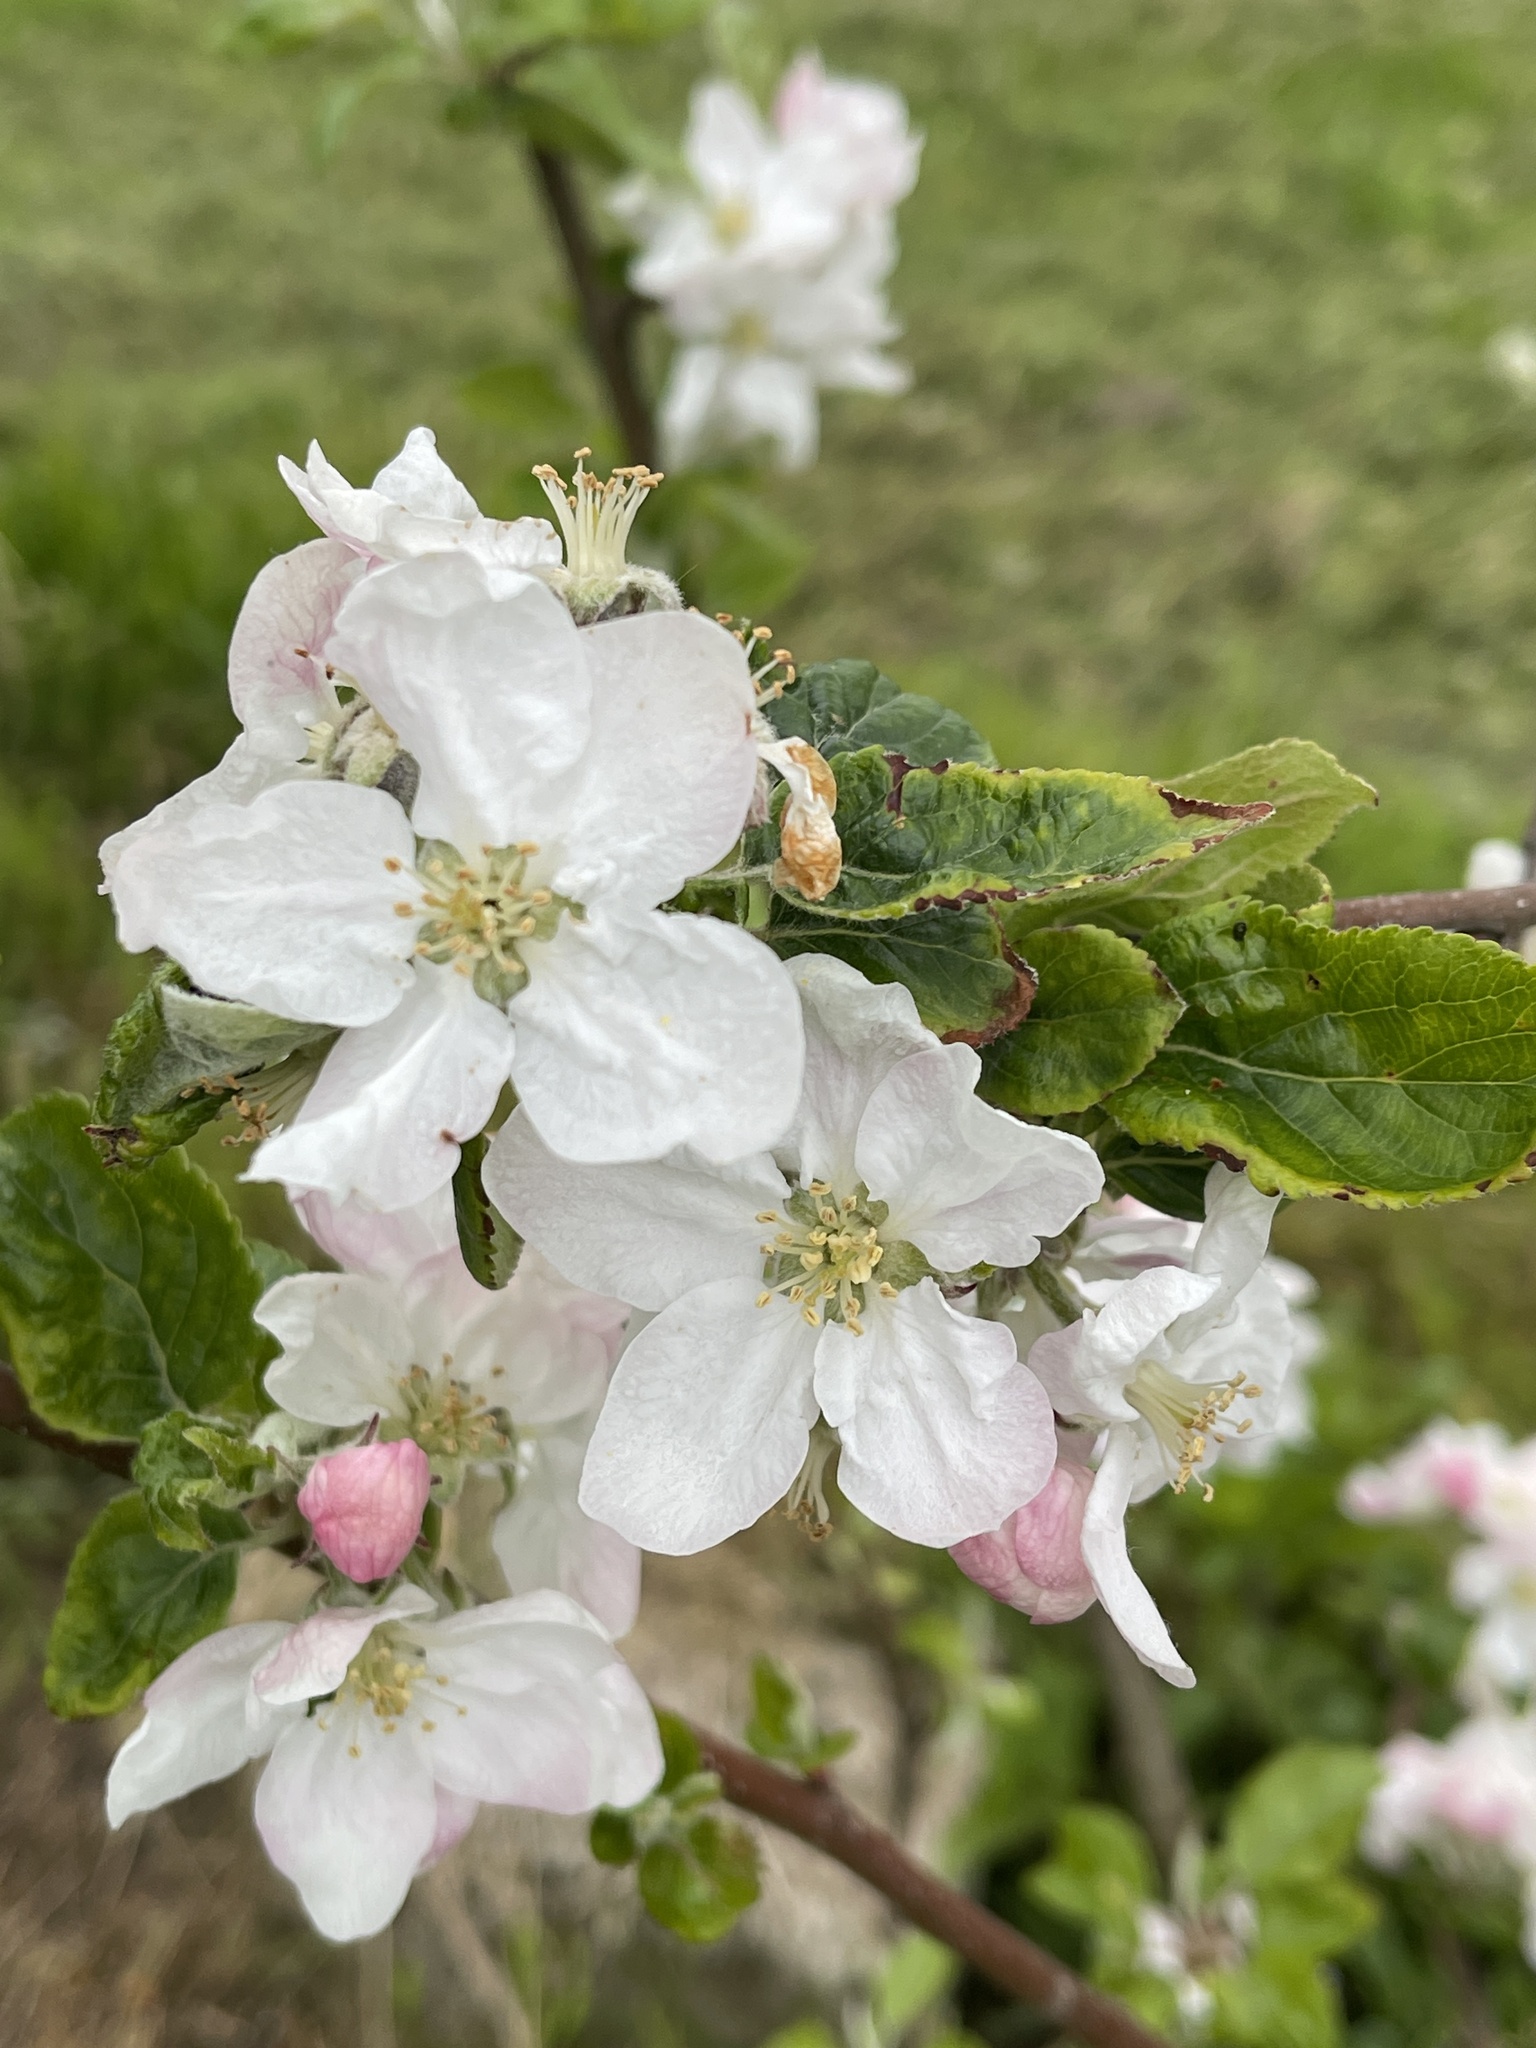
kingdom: Plantae
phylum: Tracheophyta
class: Magnoliopsida
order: Rosales
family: Rosaceae
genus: Malus
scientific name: Malus domestica
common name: Apple
